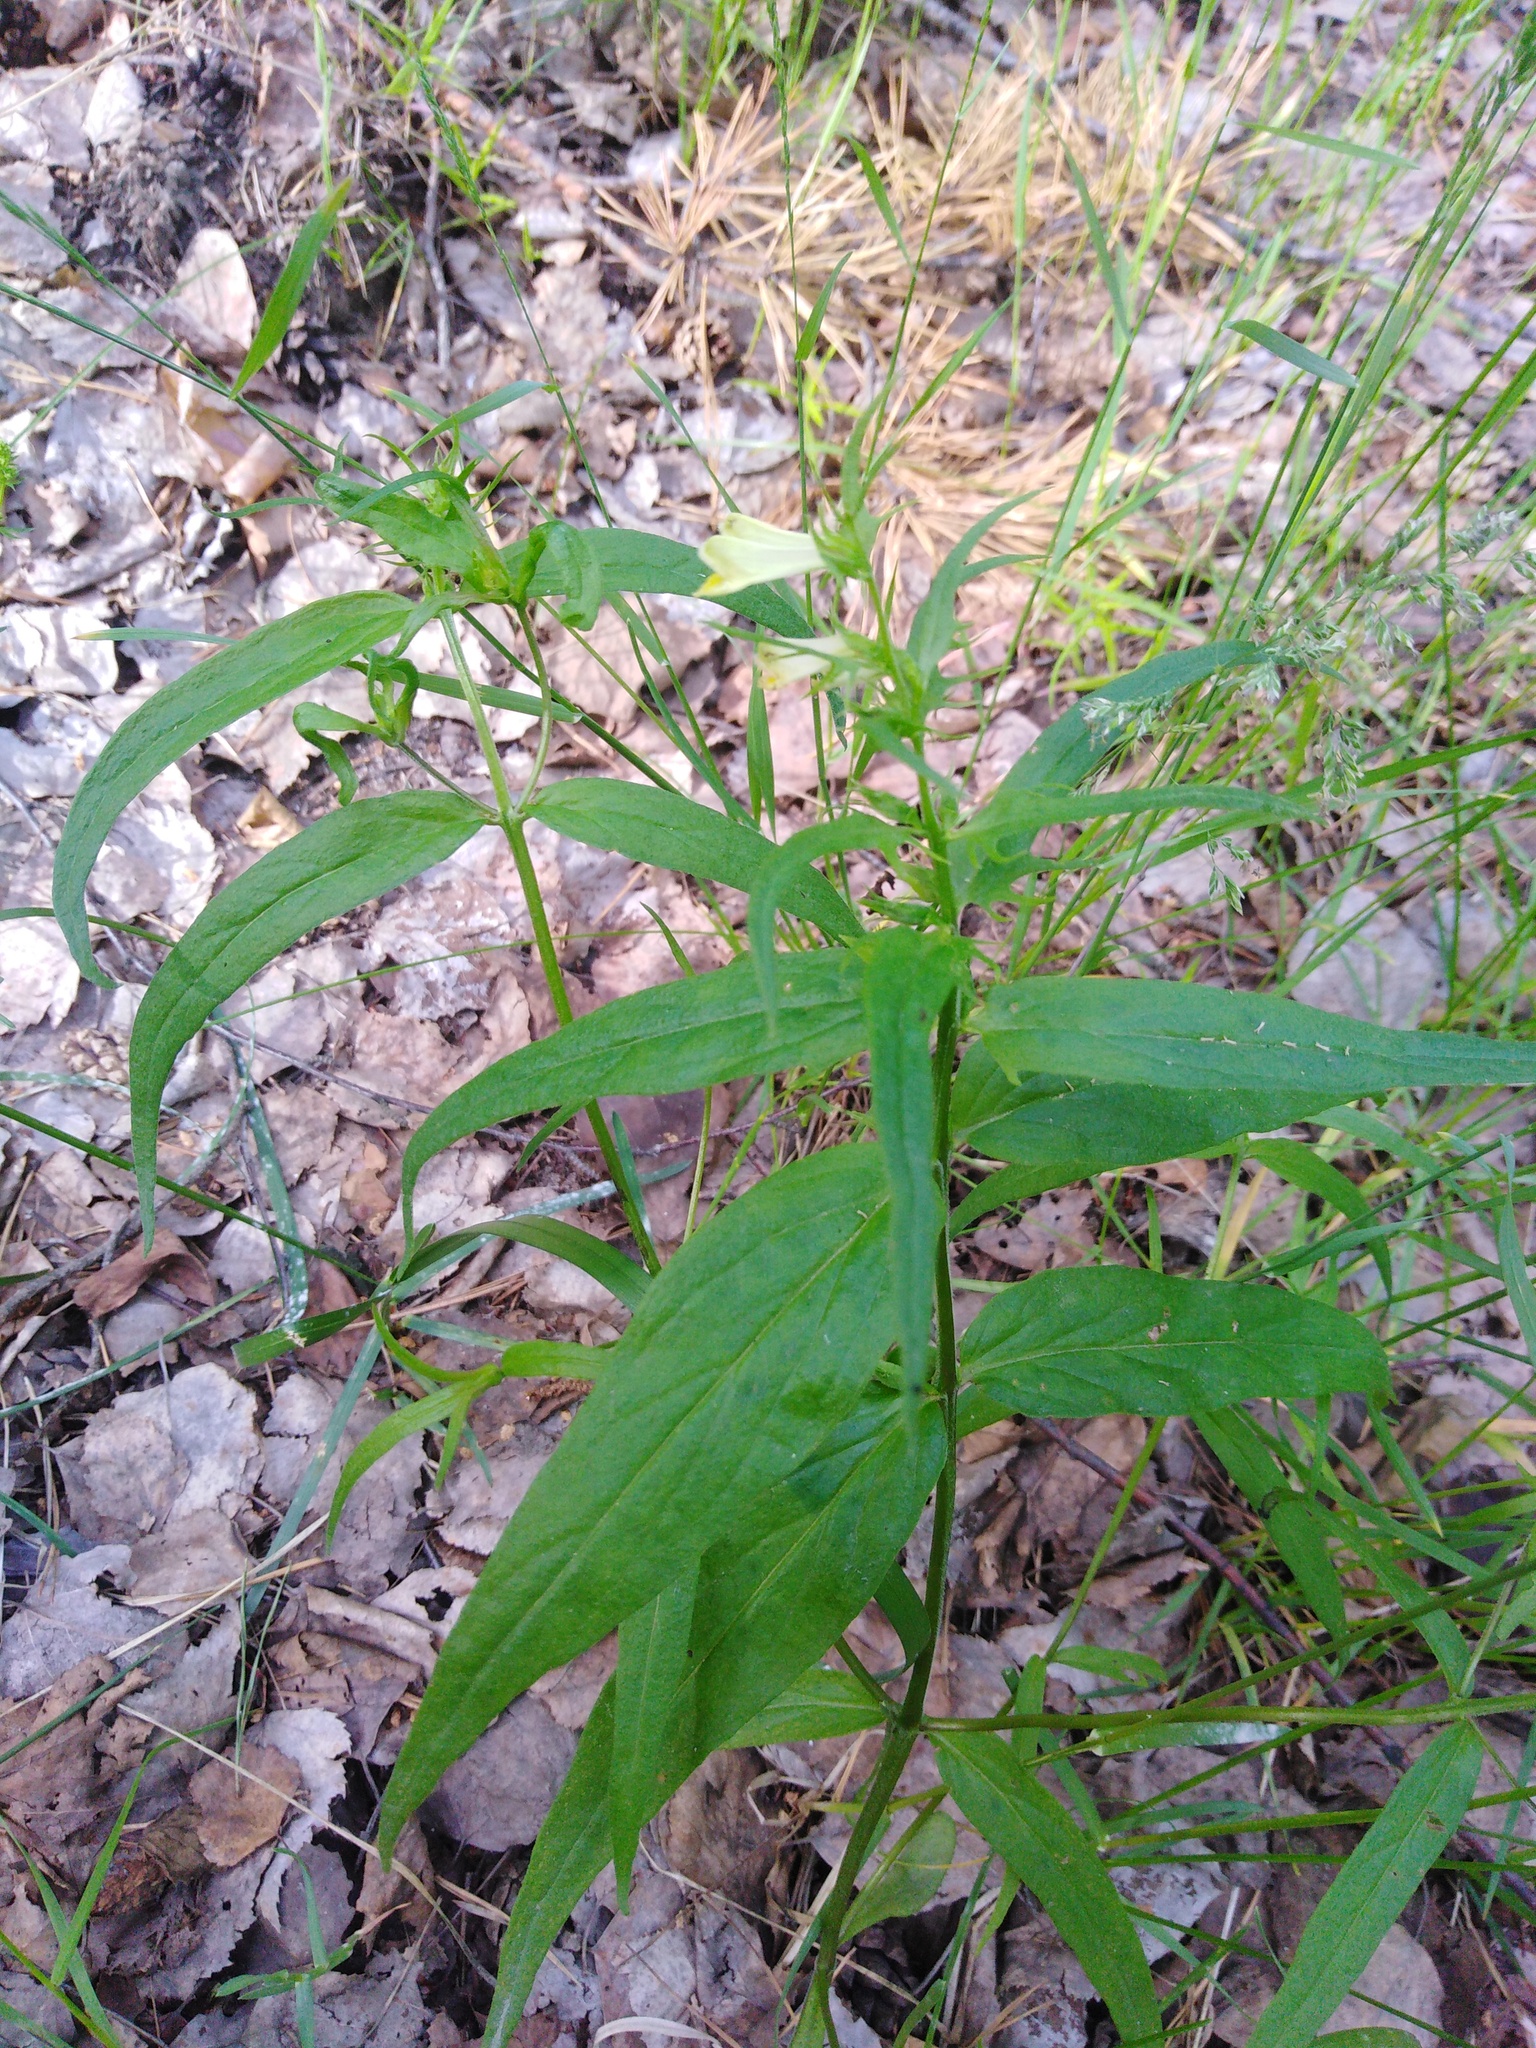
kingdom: Plantae
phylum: Tracheophyta
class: Magnoliopsida
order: Lamiales
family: Orobanchaceae
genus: Melampyrum
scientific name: Melampyrum pratense
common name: Common cow-wheat
